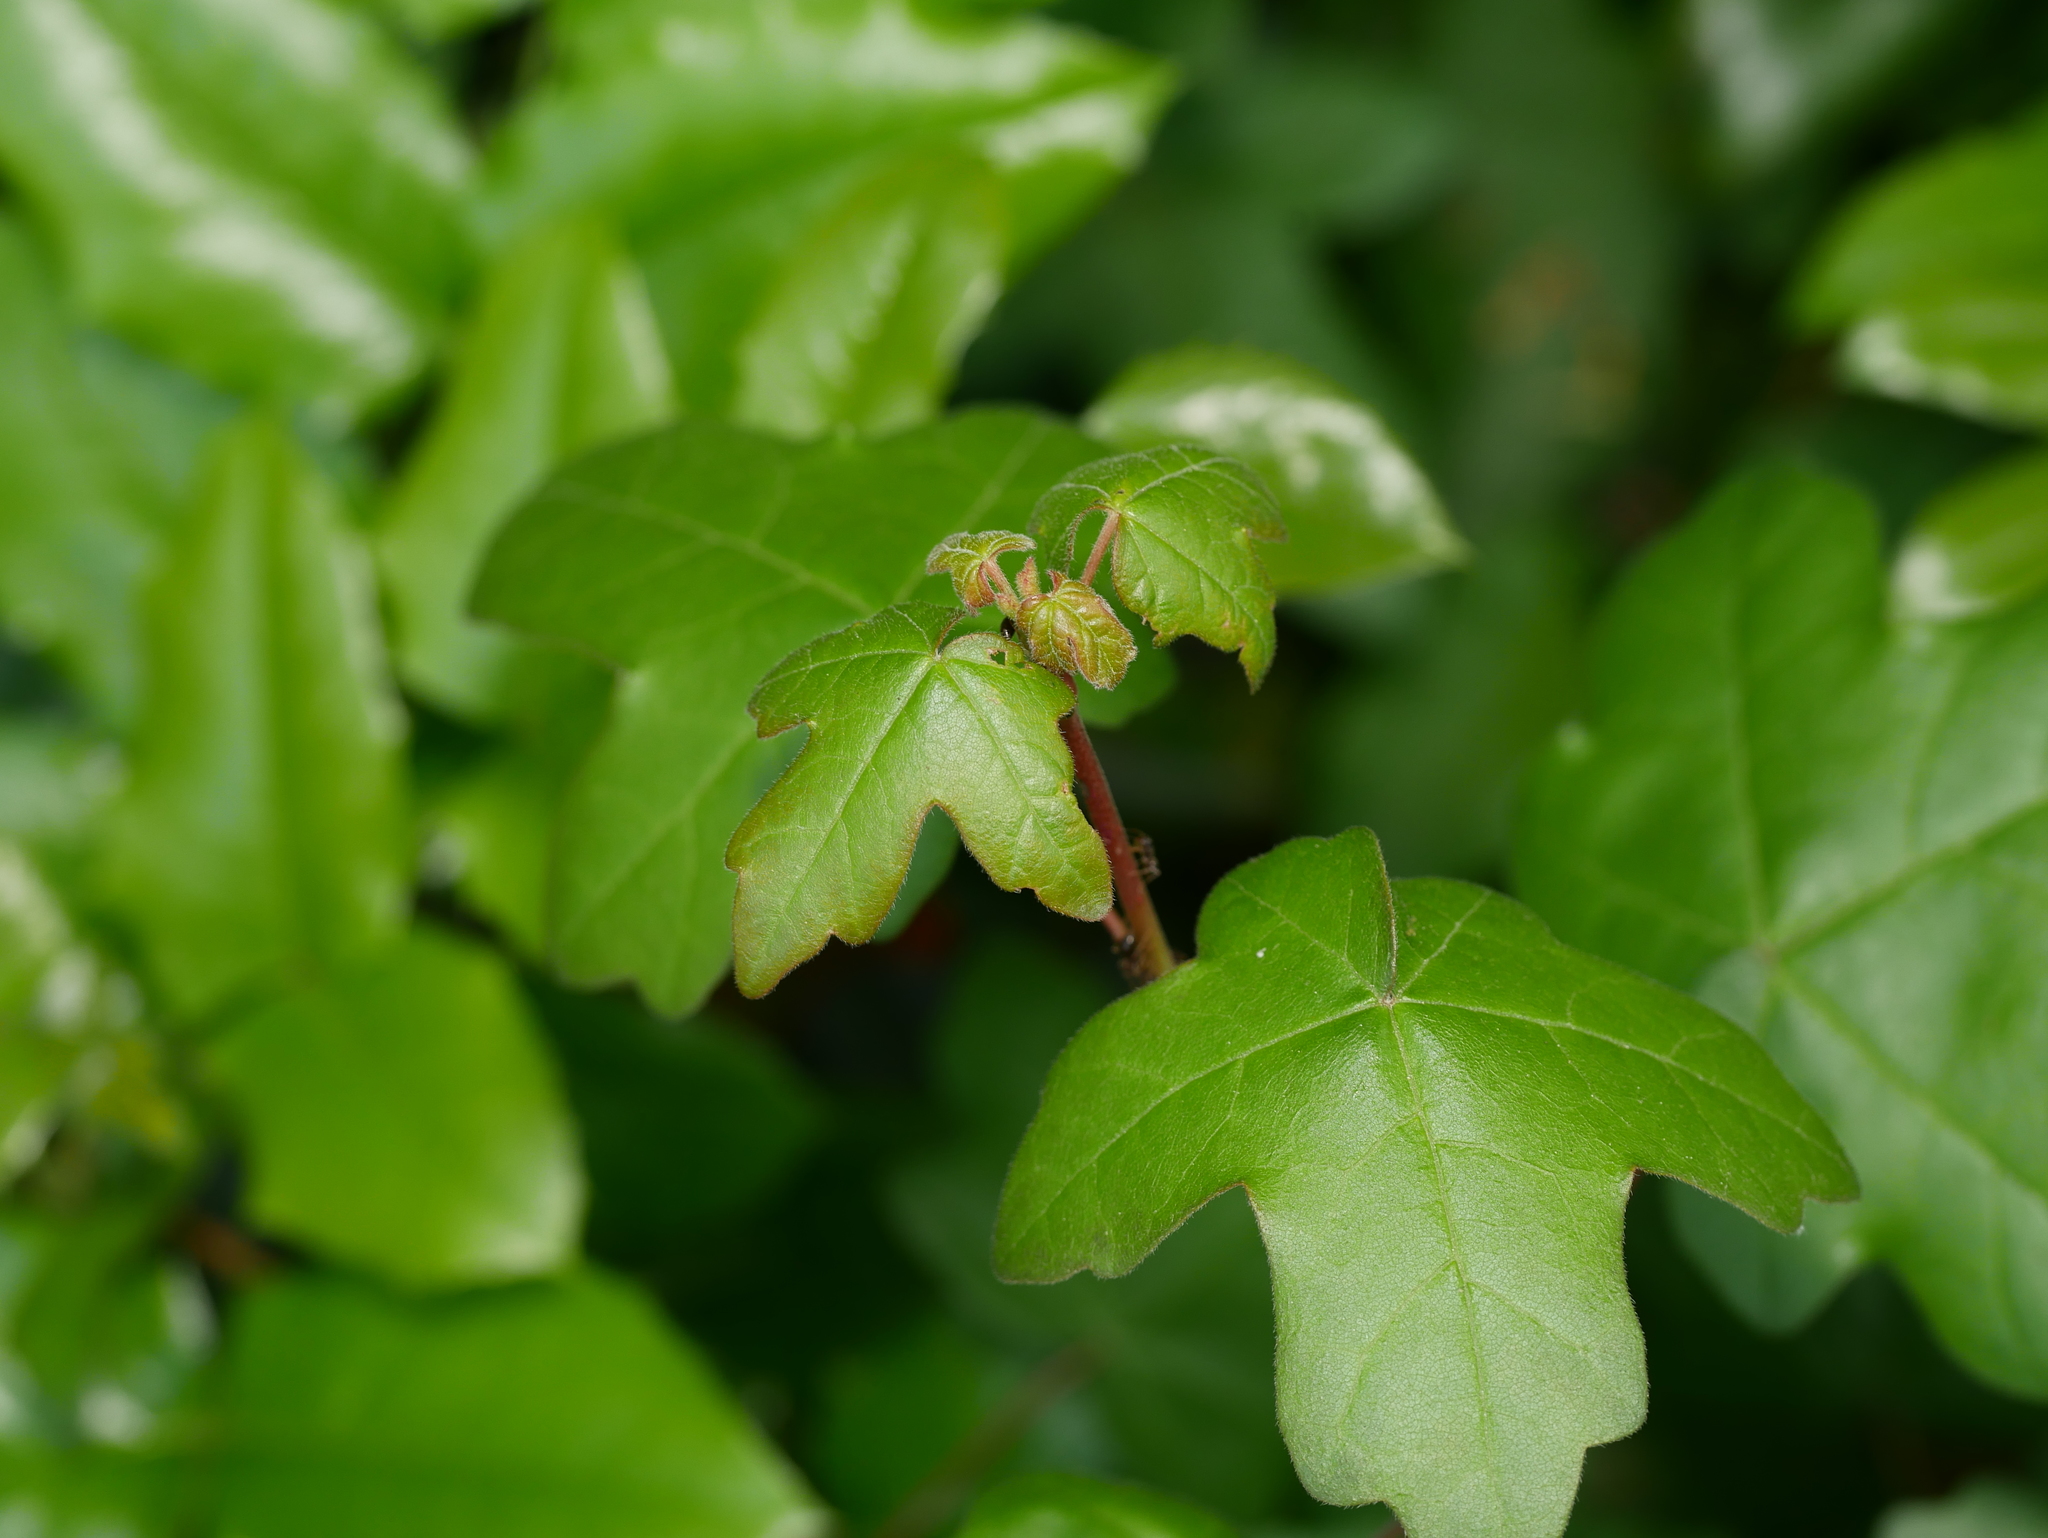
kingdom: Plantae
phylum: Tracheophyta
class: Magnoliopsida
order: Sapindales
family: Sapindaceae
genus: Acer
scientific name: Acer campestre
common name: Field maple
